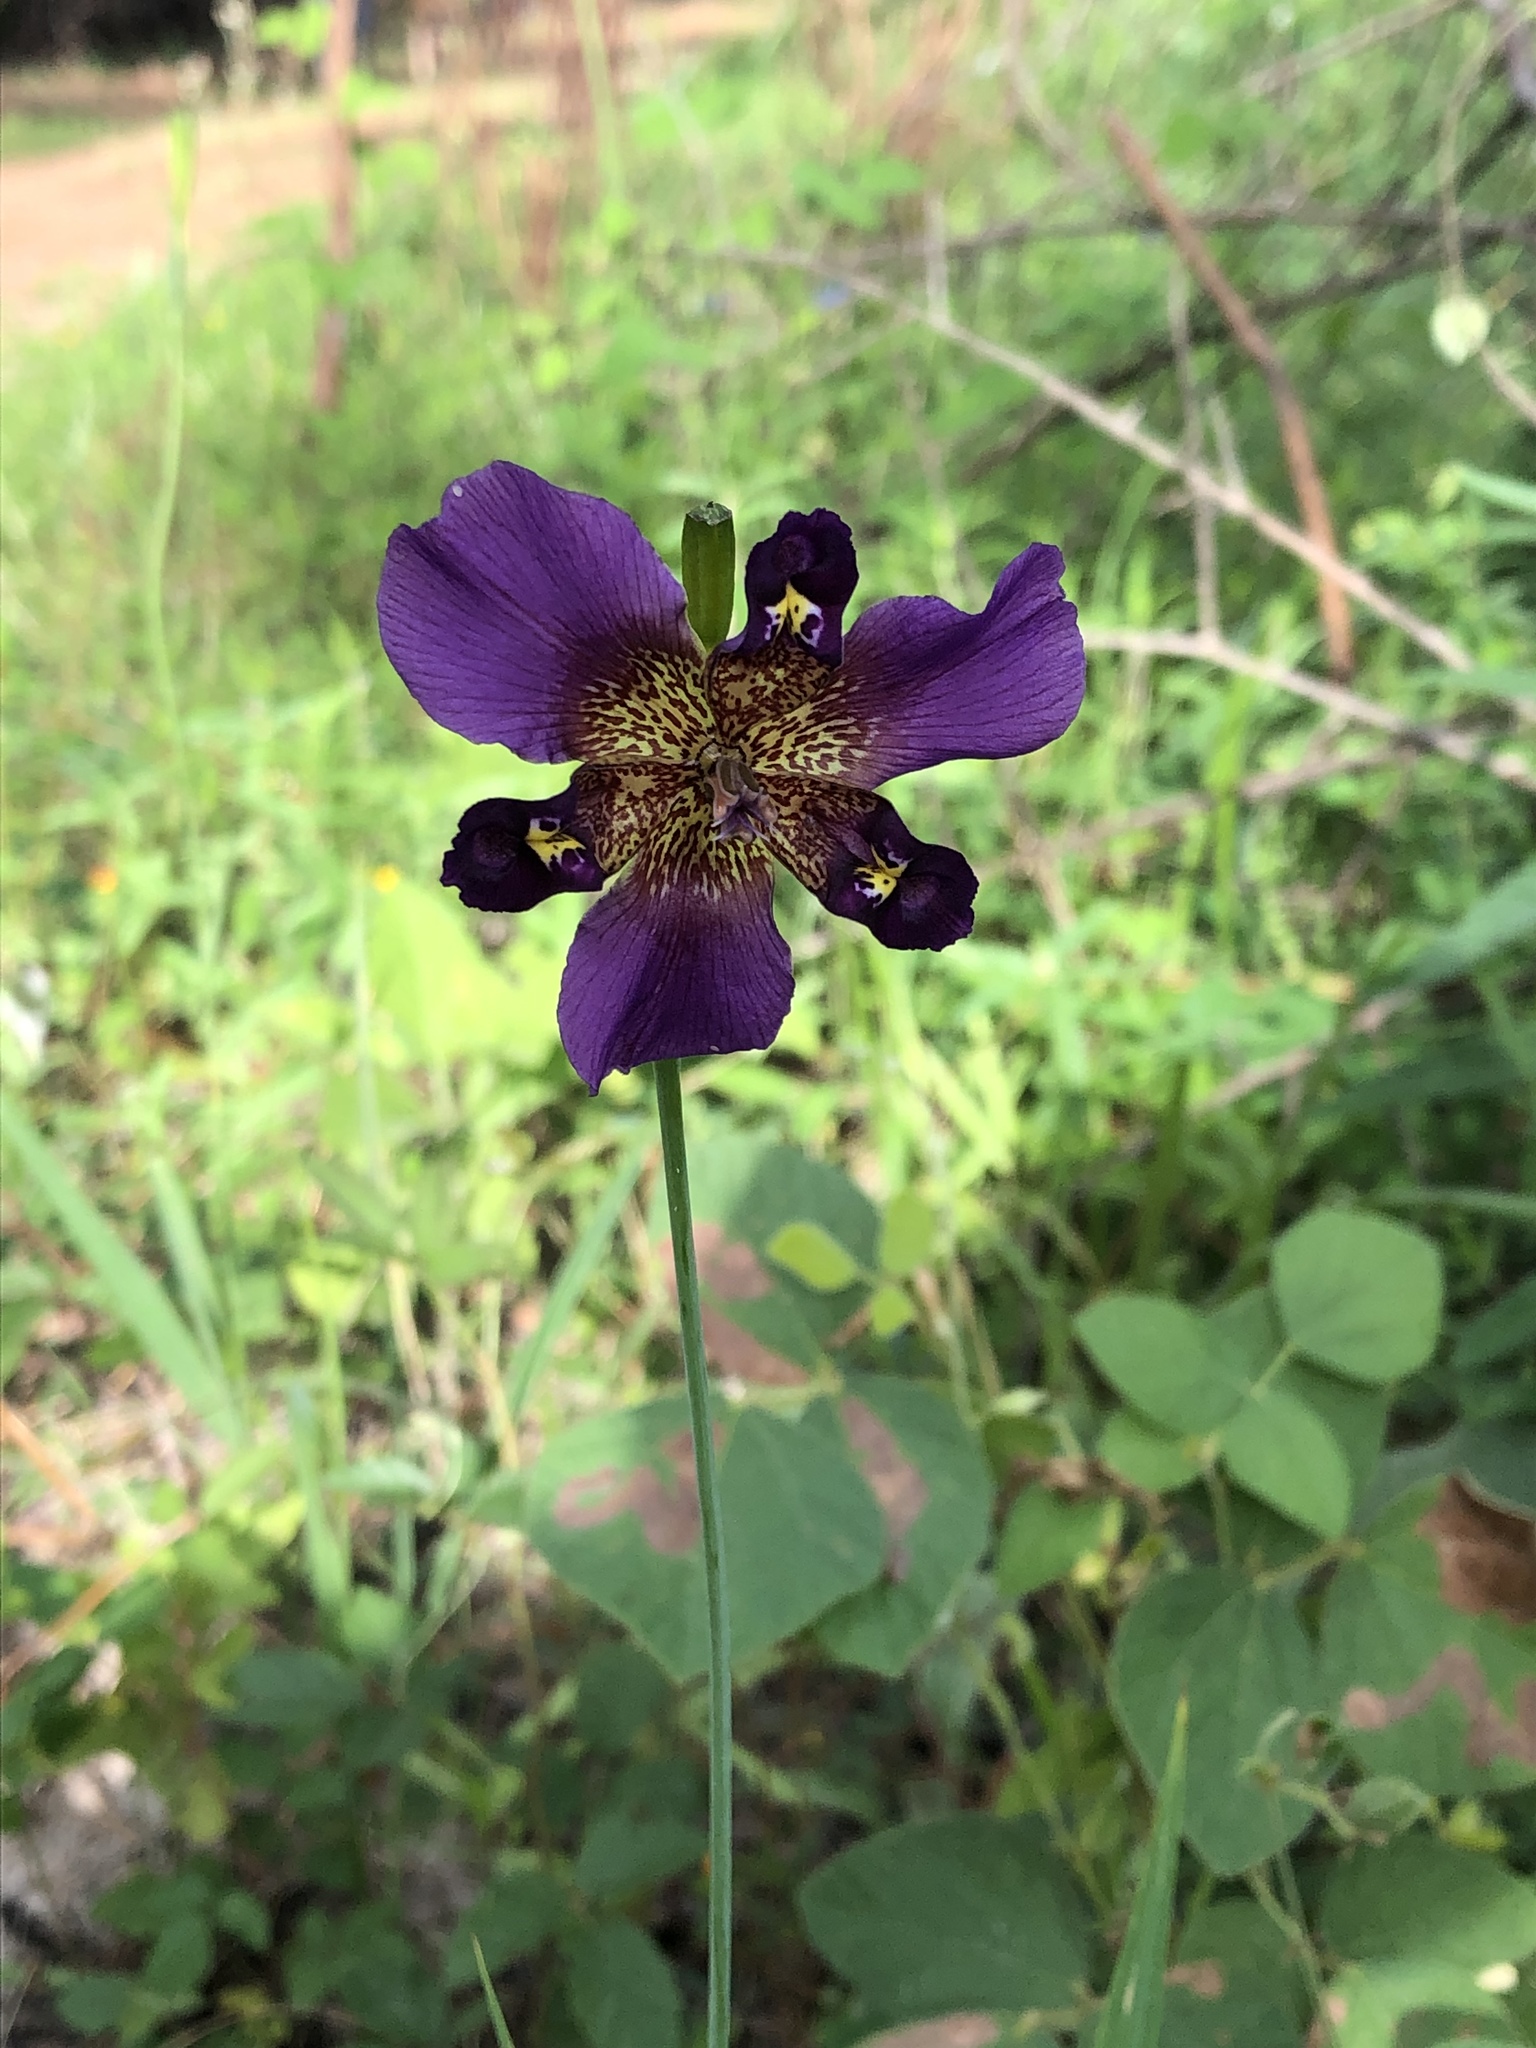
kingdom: Plantae
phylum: Tracheophyta
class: Liliopsida
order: Asparagales
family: Iridaceae
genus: Alophia
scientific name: Alophia drummondii
